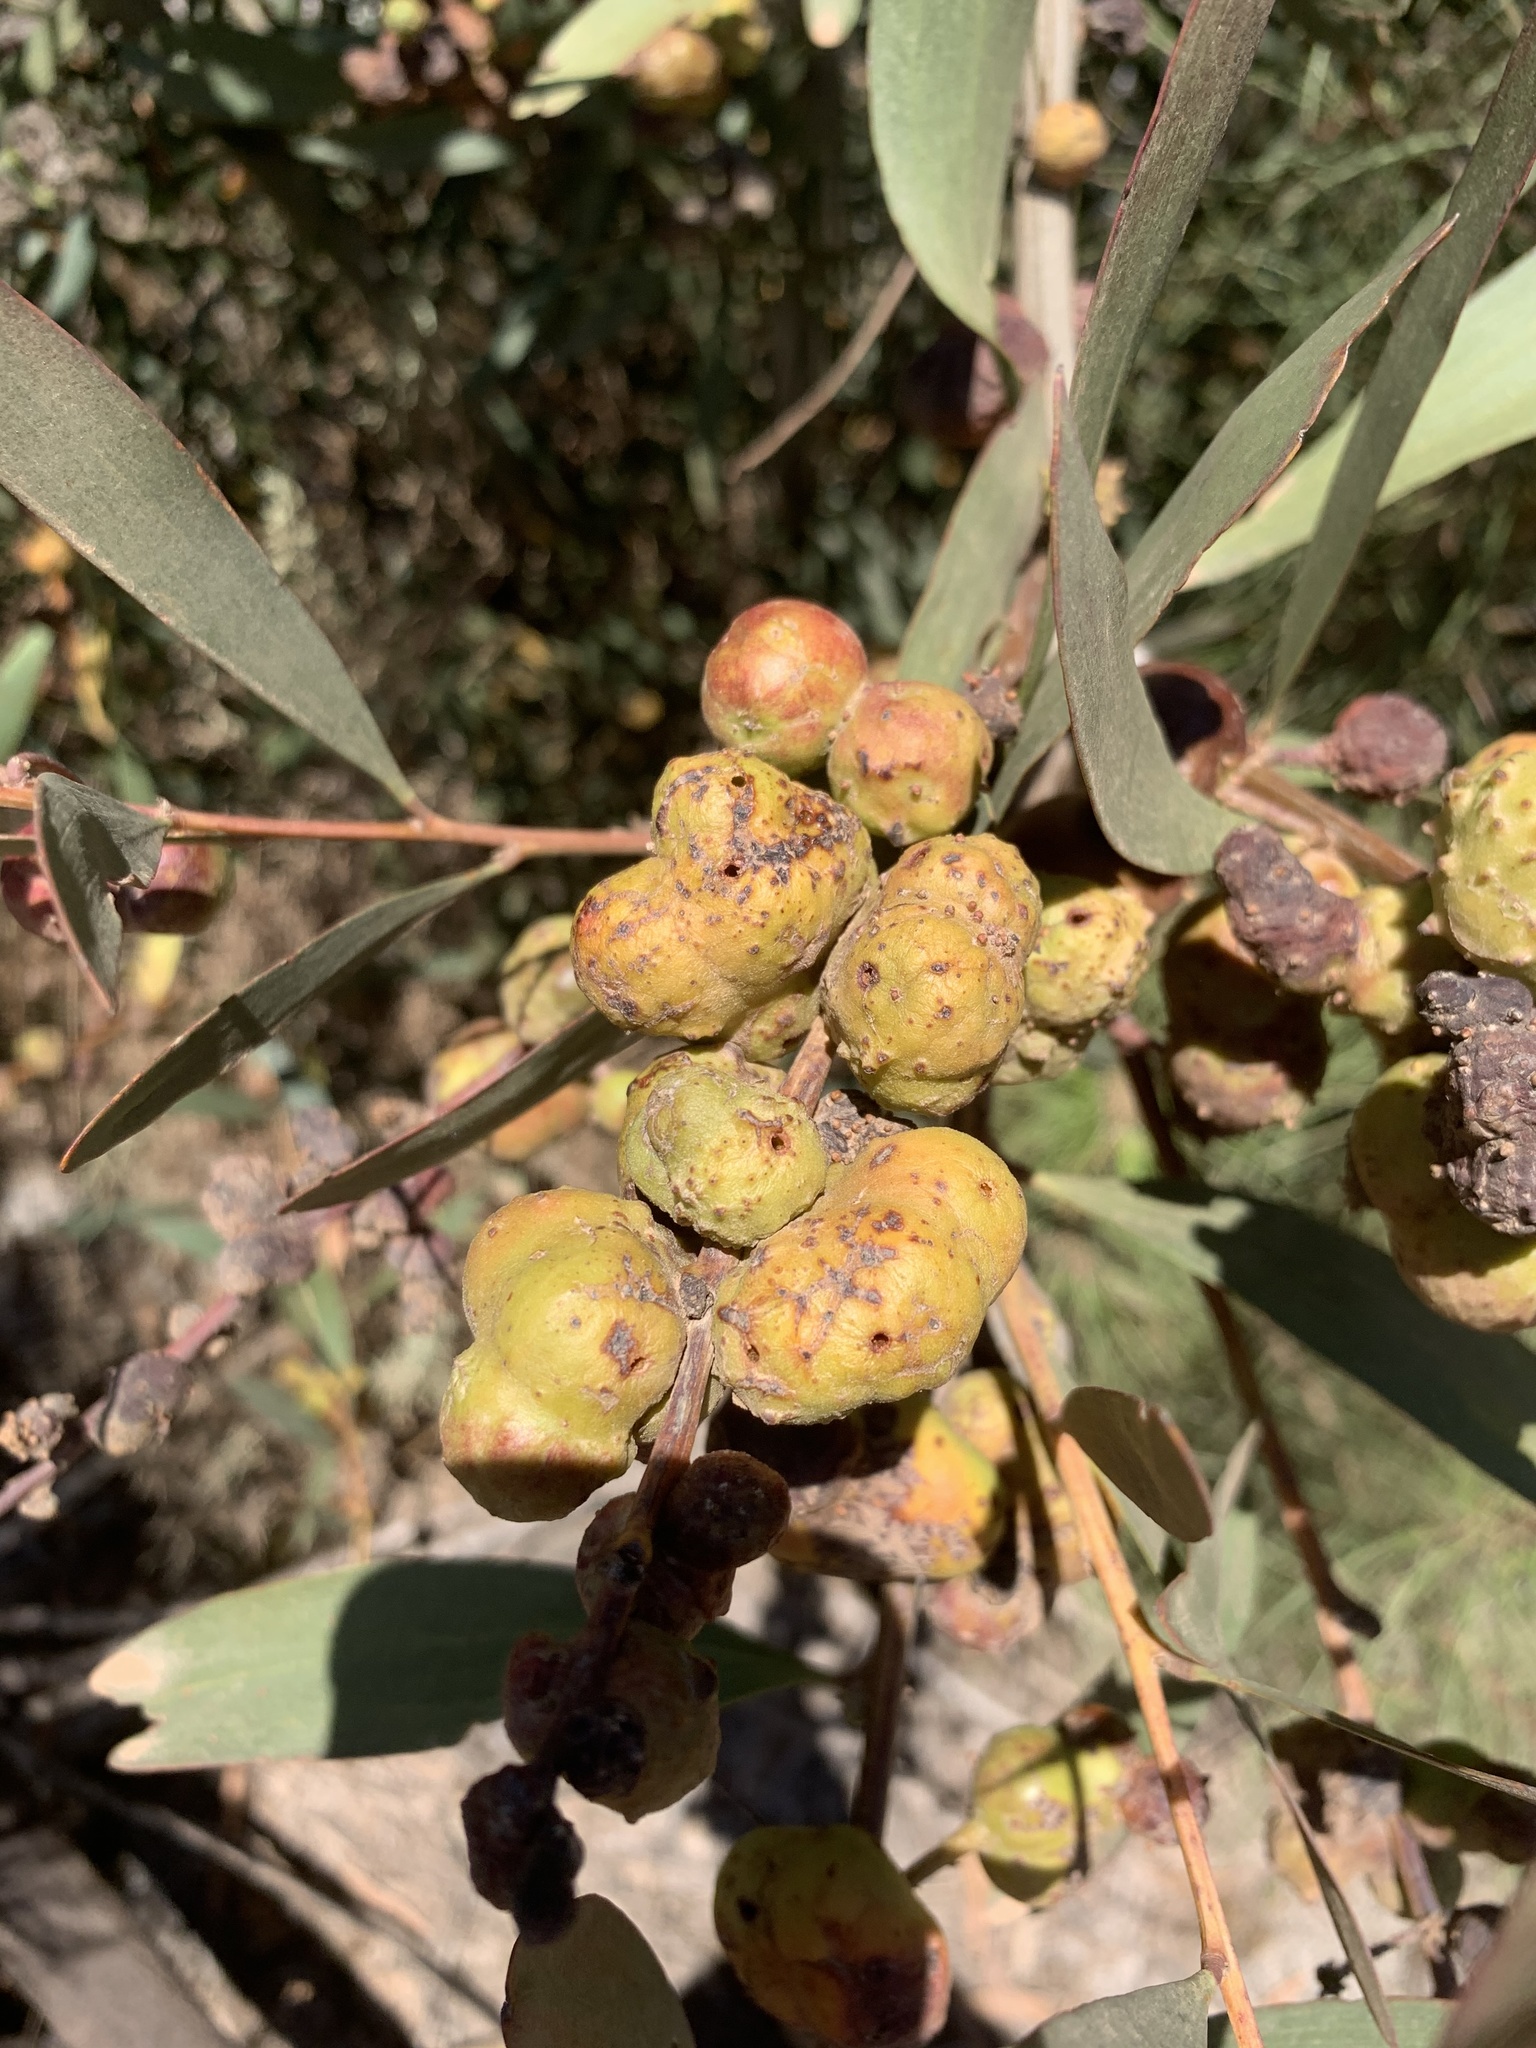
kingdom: Plantae
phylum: Tracheophyta
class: Magnoliopsida
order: Fabales
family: Fabaceae
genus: Acacia
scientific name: Acacia longifolia
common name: Sydney golden wattle
